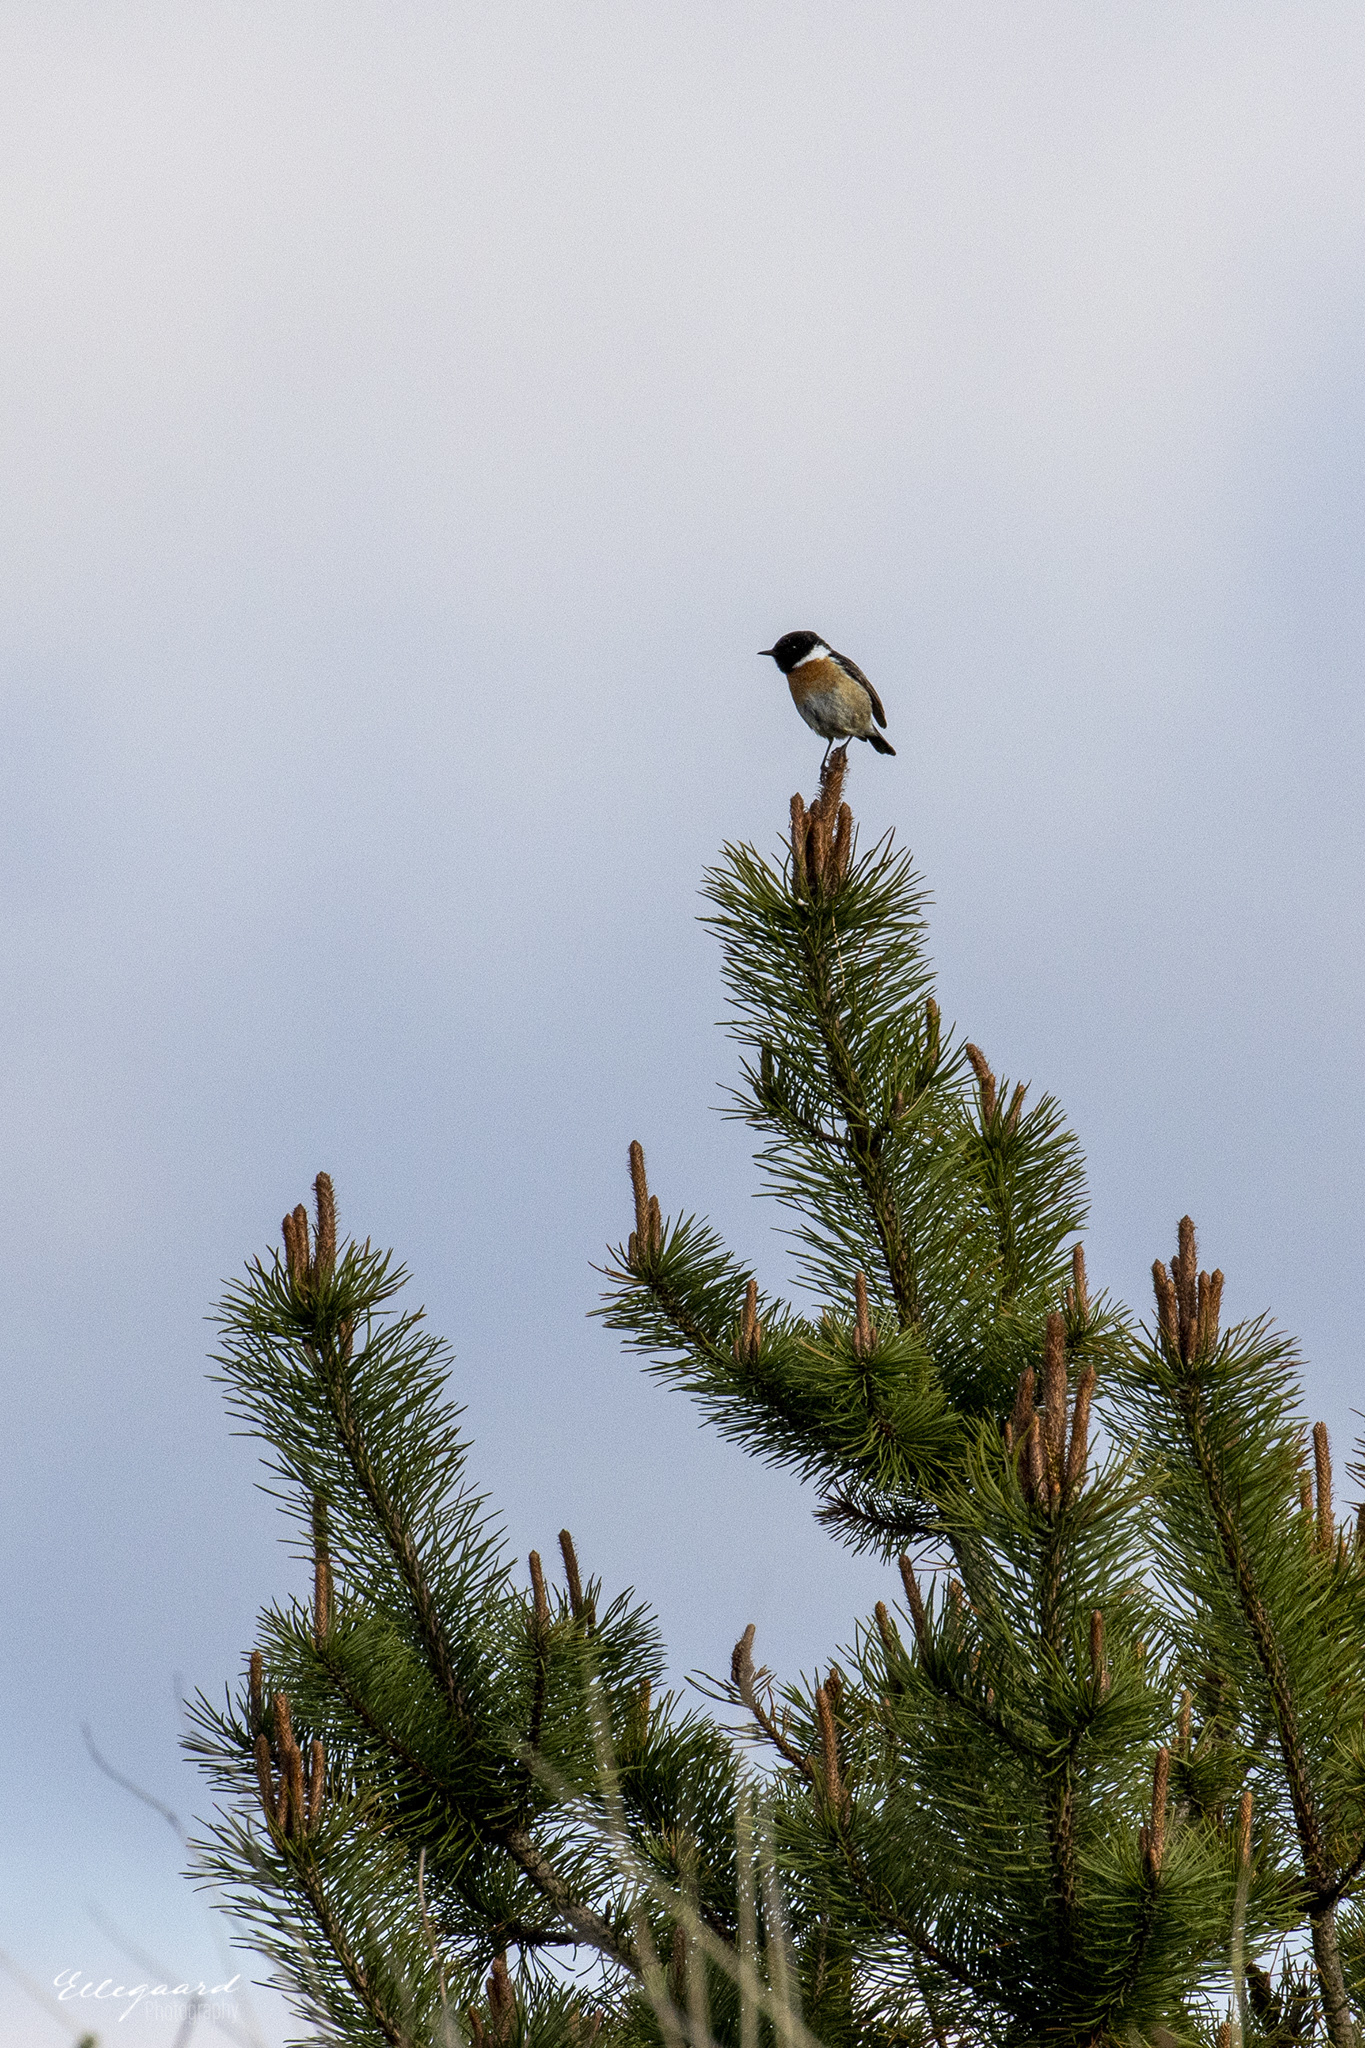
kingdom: Animalia
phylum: Chordata
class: Aves
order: Passeriformes
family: Muscicapidae
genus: Saxicola
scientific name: Saxicola rubicola
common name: European stonechat
